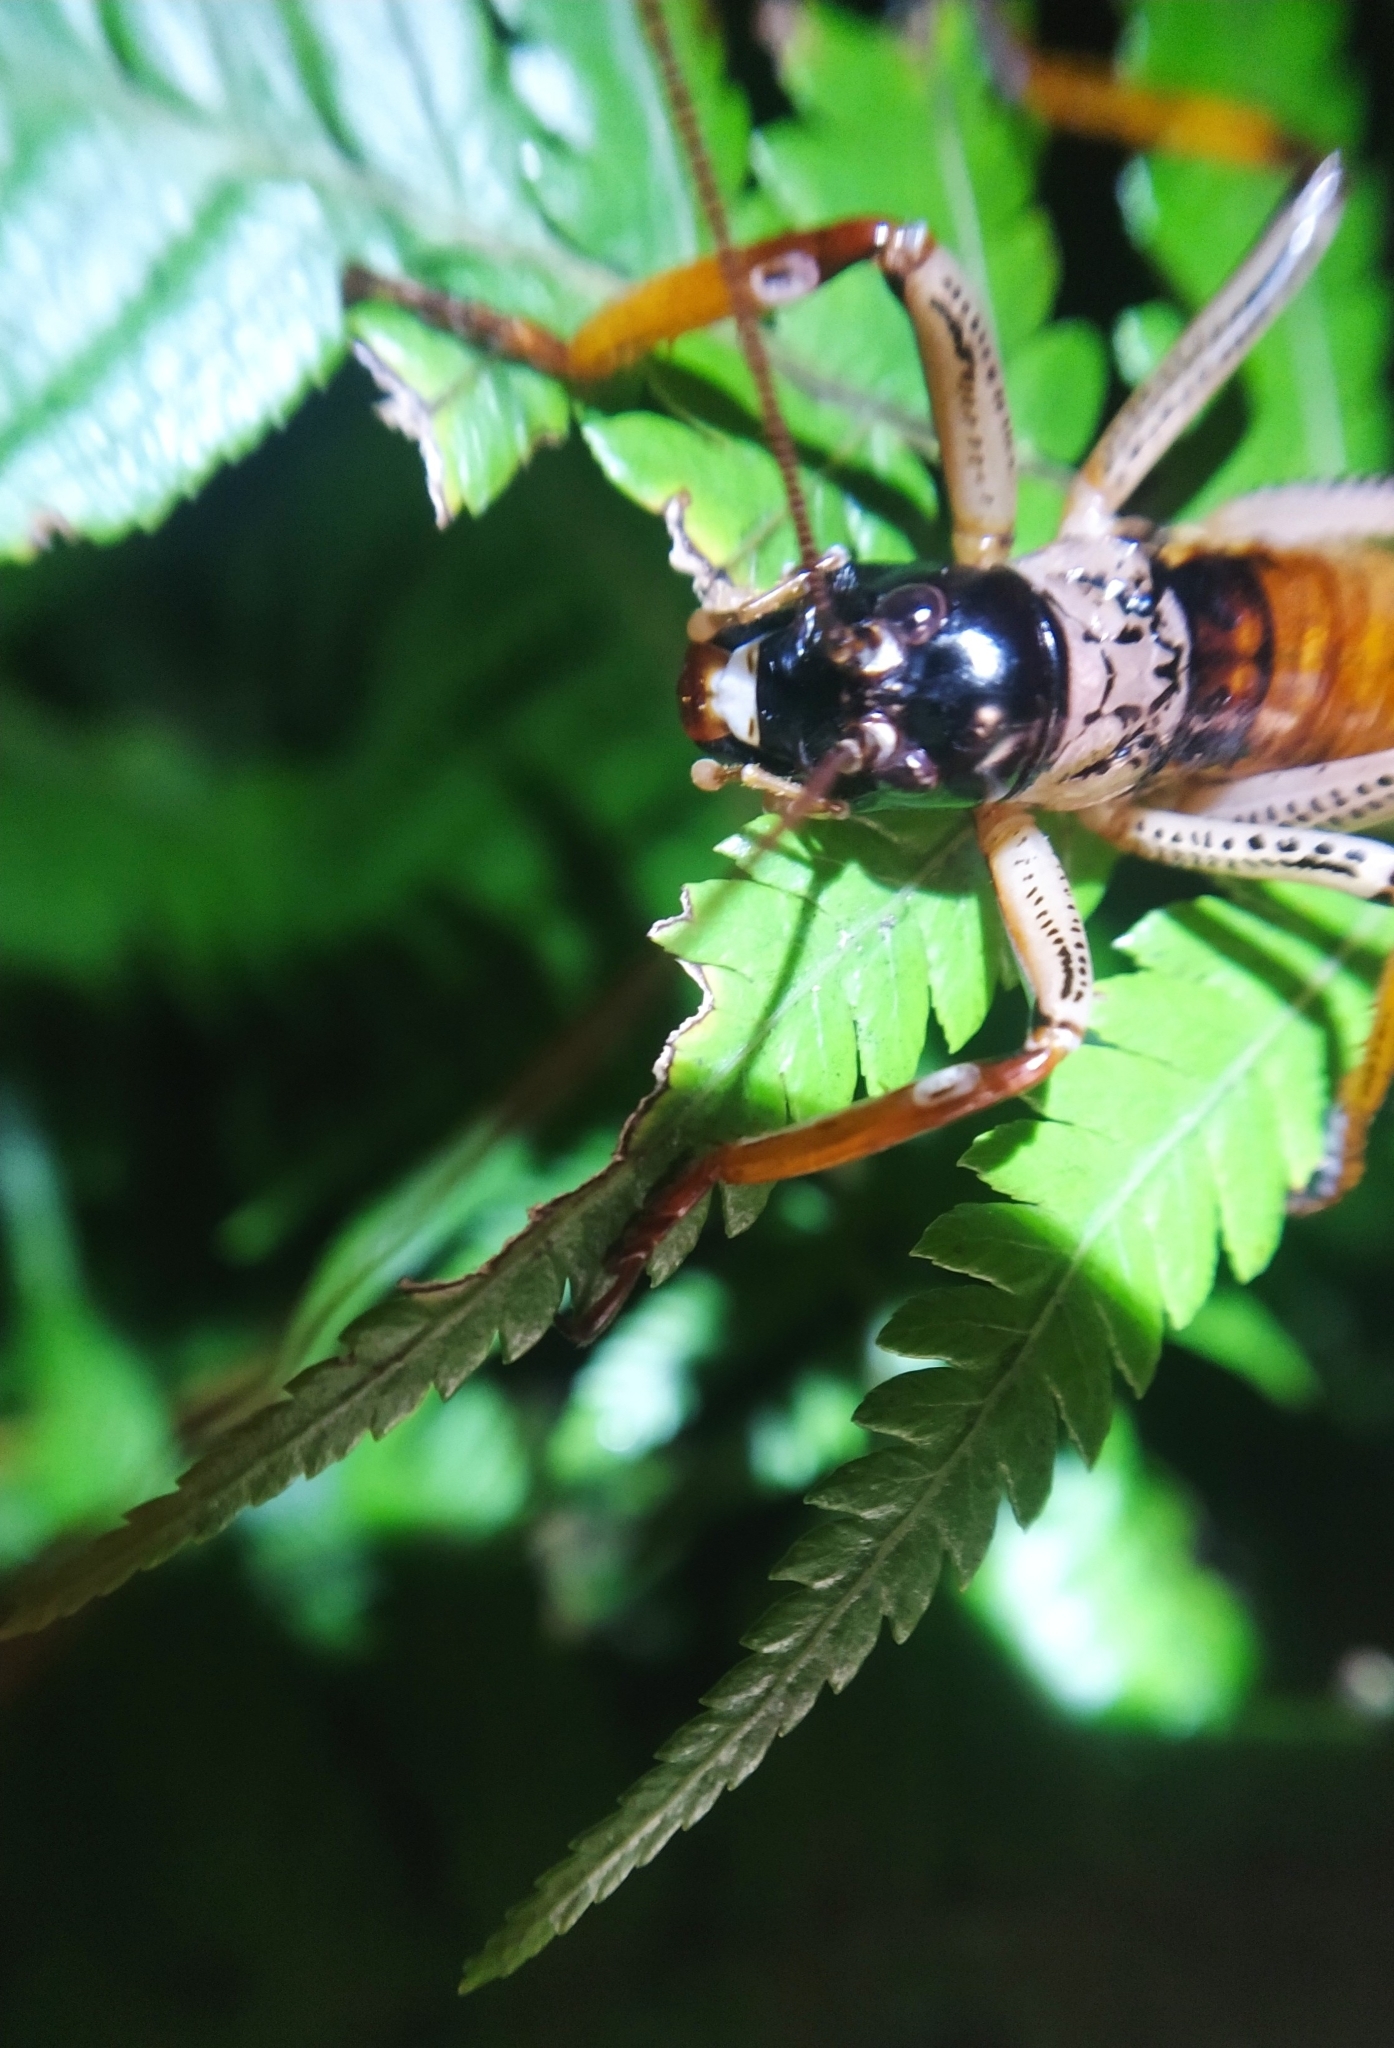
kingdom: Animalia
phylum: Arthropoda
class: Insecta
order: Orthoptera
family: Anostostomatidae
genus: Hemideina
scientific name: Hemideina thoracica
